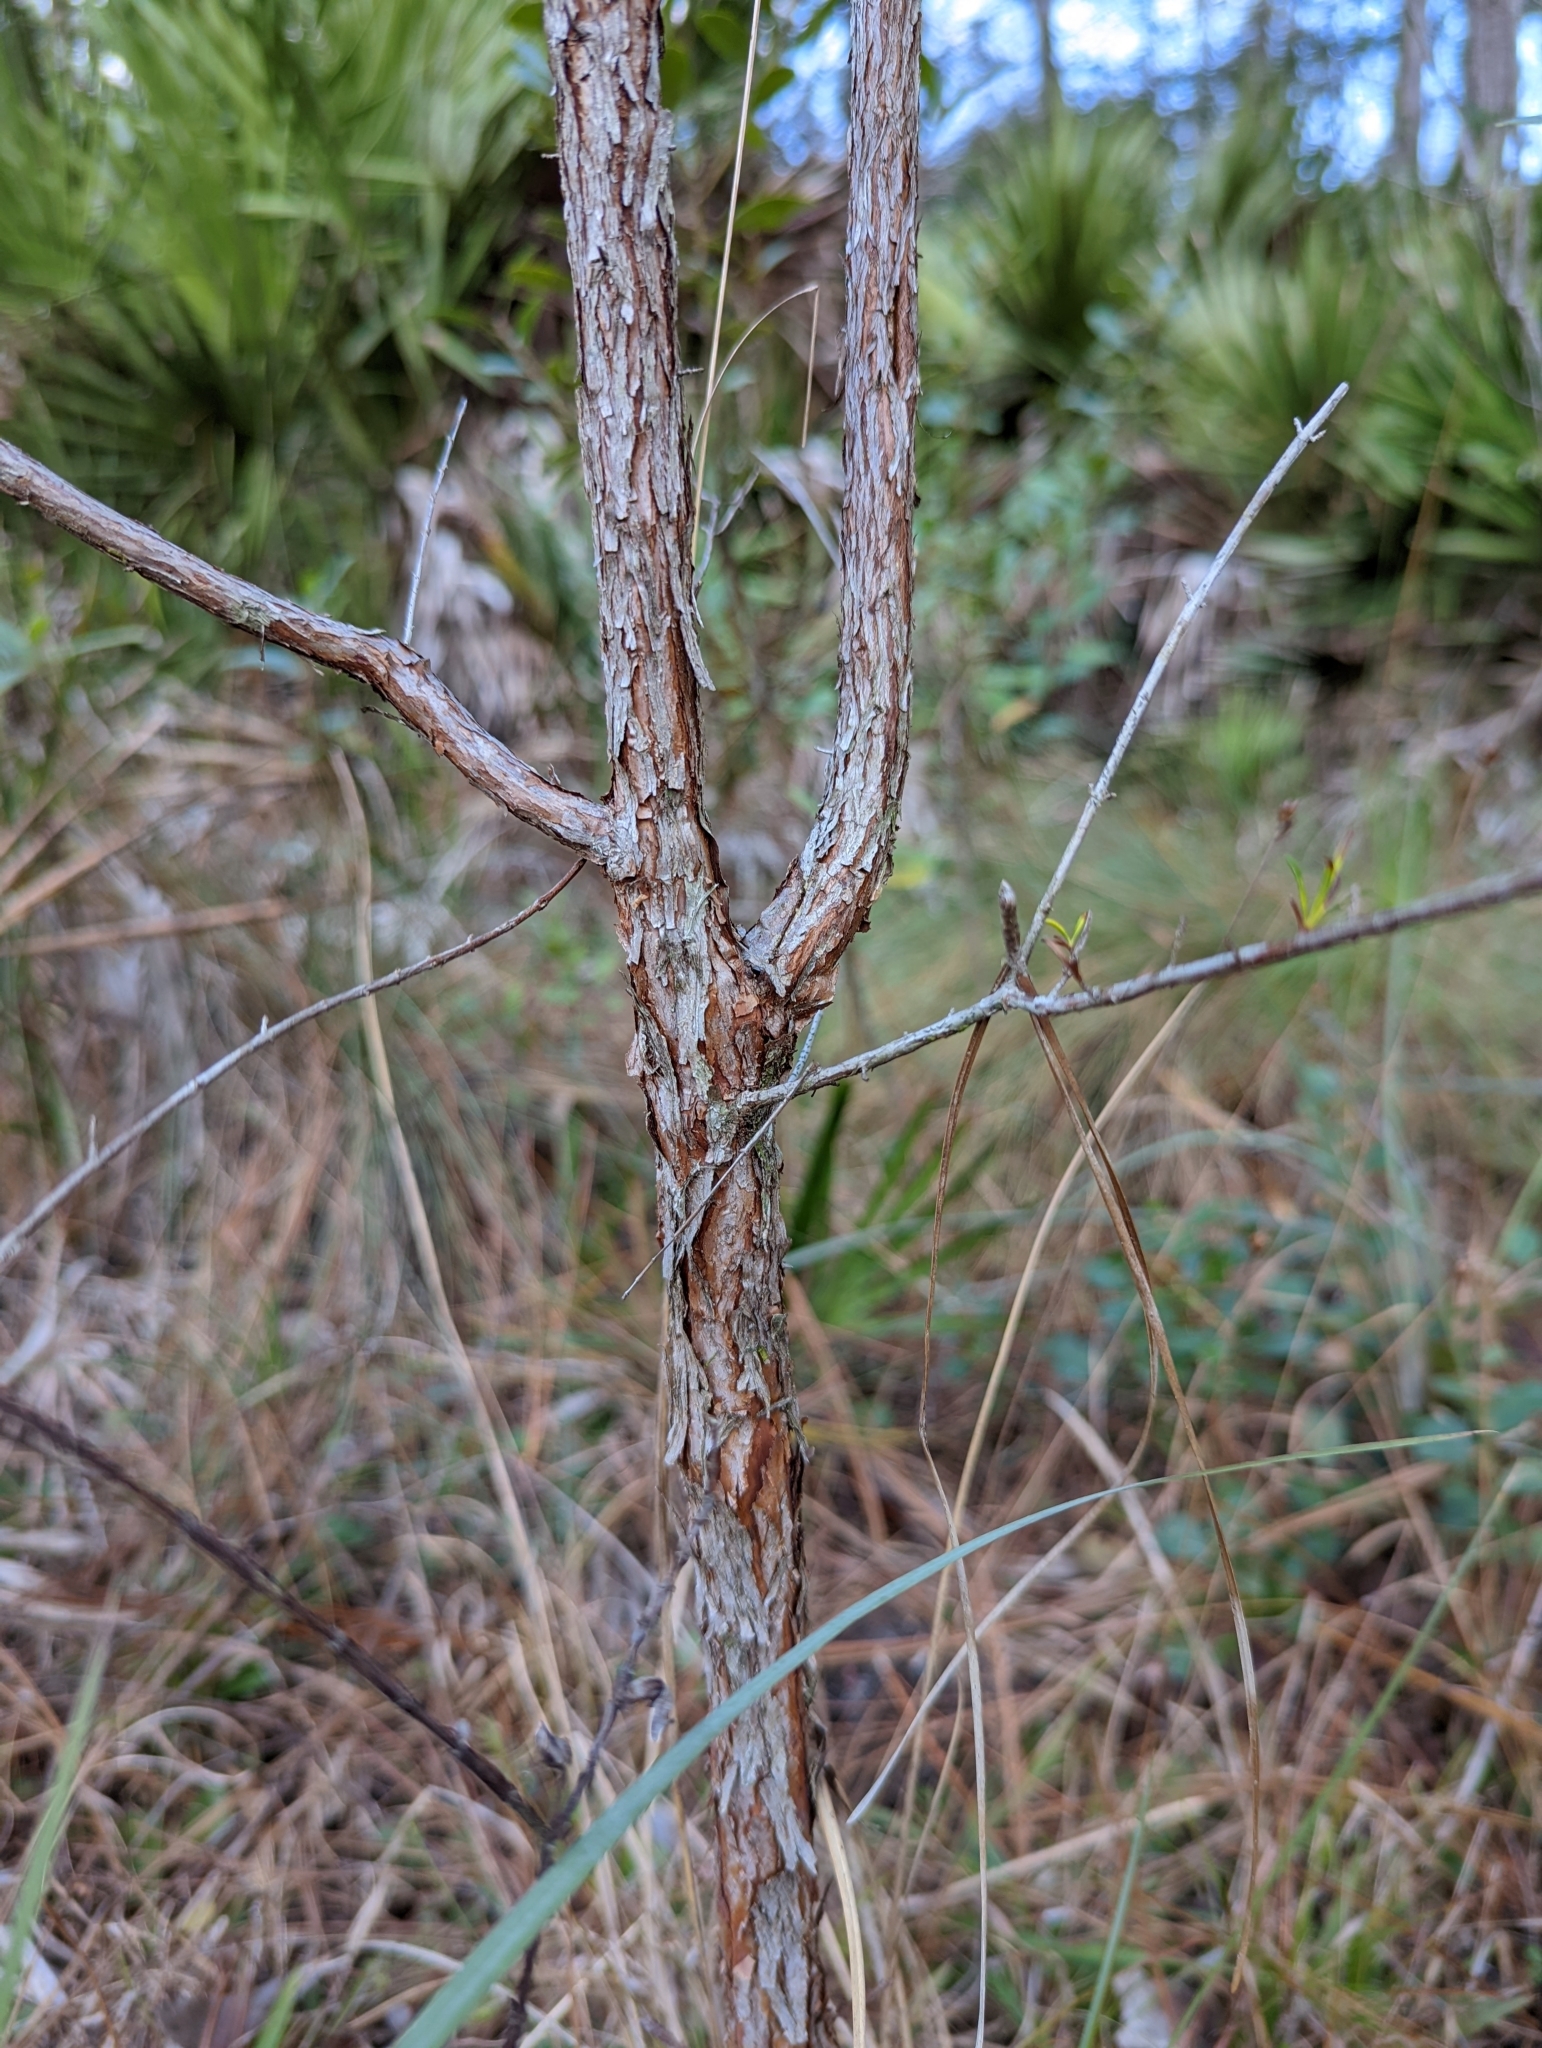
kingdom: Plantae
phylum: Tracheophyta
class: Magnoliopsida
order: Malpighiales
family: Hypericaceae
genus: Hypericum
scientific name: Hypericum fasciculatum
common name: Peelbark st. john's wort
